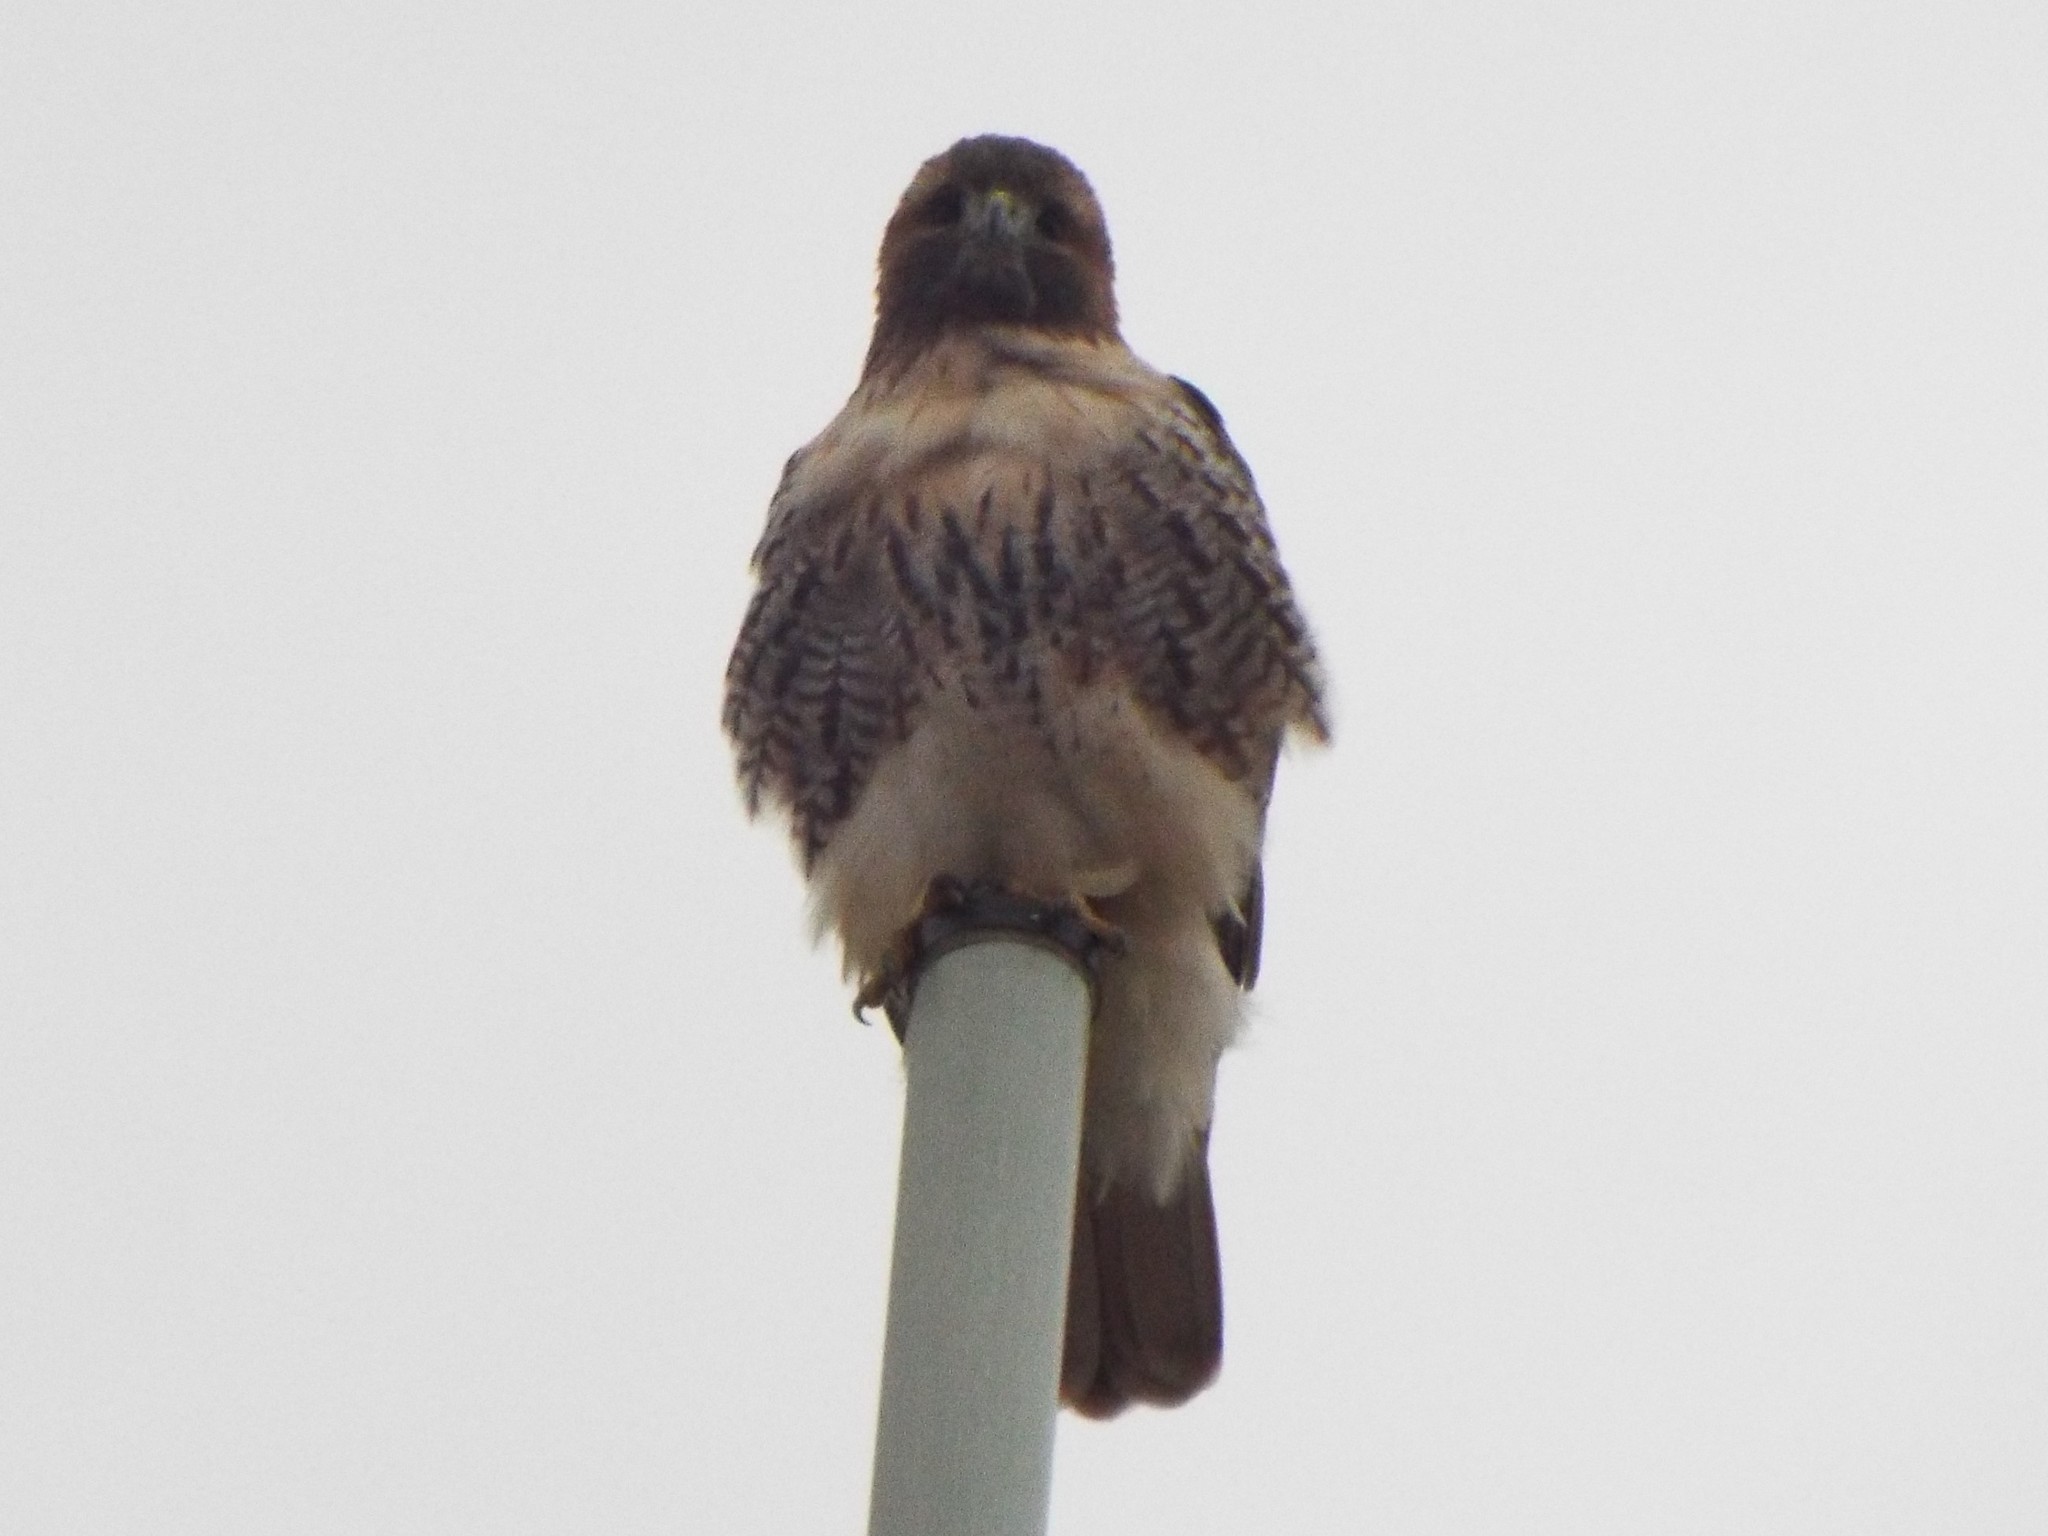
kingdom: Animalia
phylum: Chordata
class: Aves
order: Accipitriformes
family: Accipitridae
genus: Buteo
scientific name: Buteo jamaicensis
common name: Red-tailed hawk
